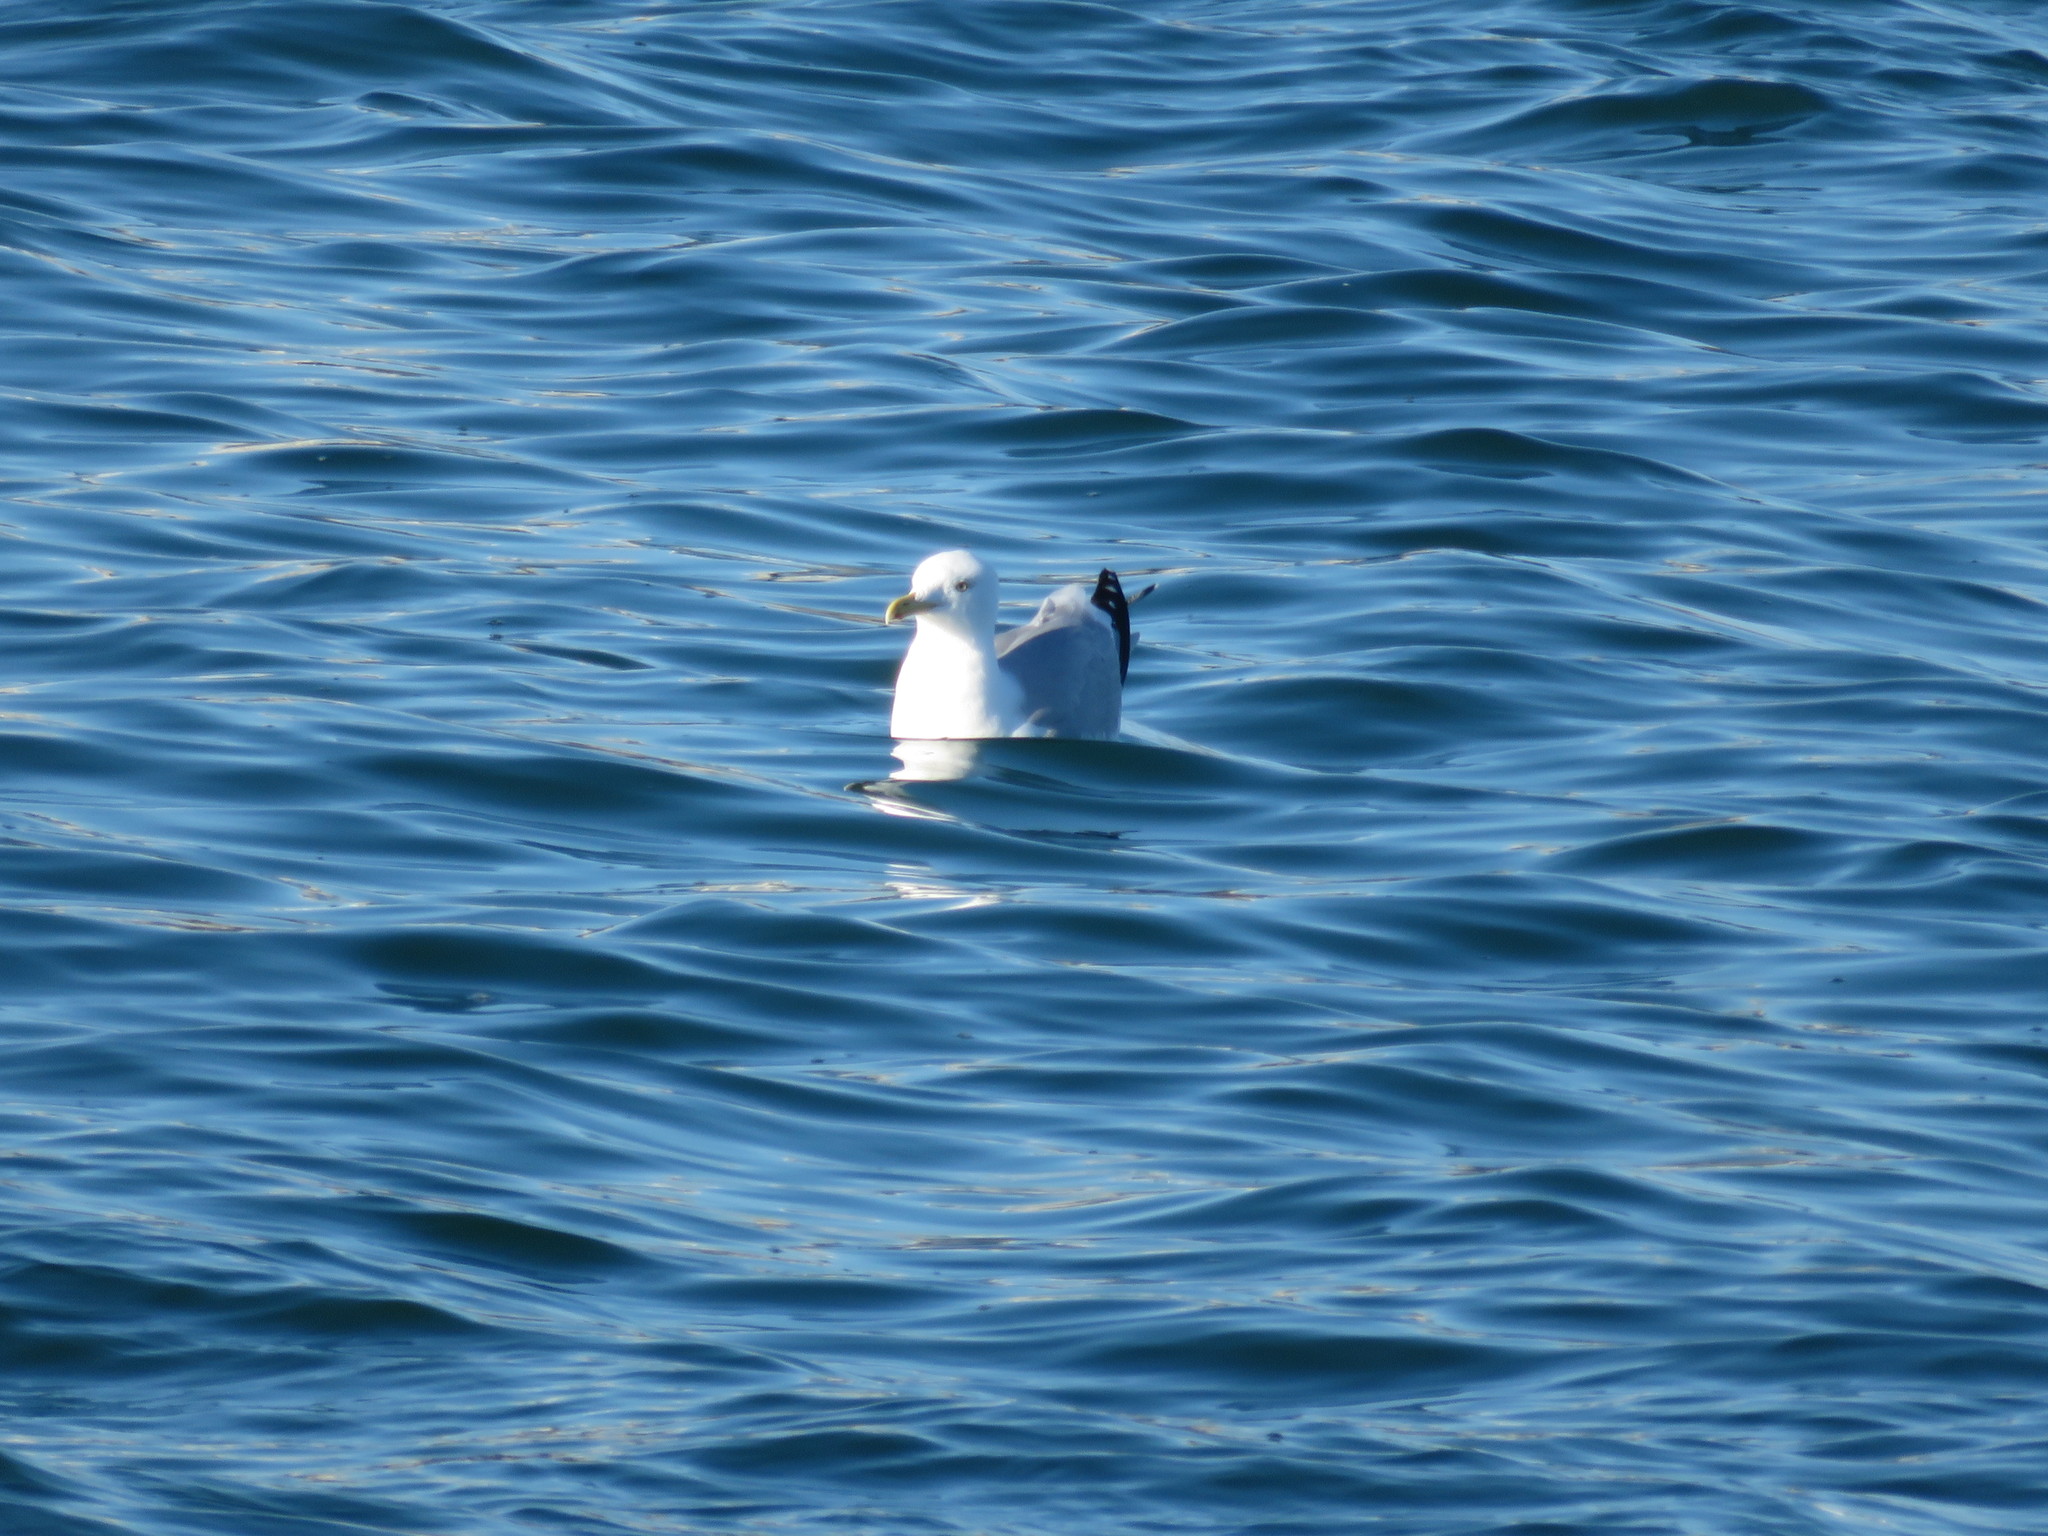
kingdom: Animalia
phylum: Chordata
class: Aves
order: Charadriiformes
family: Laridae
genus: Larus
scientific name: Larus argentatus
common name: Herring gull
